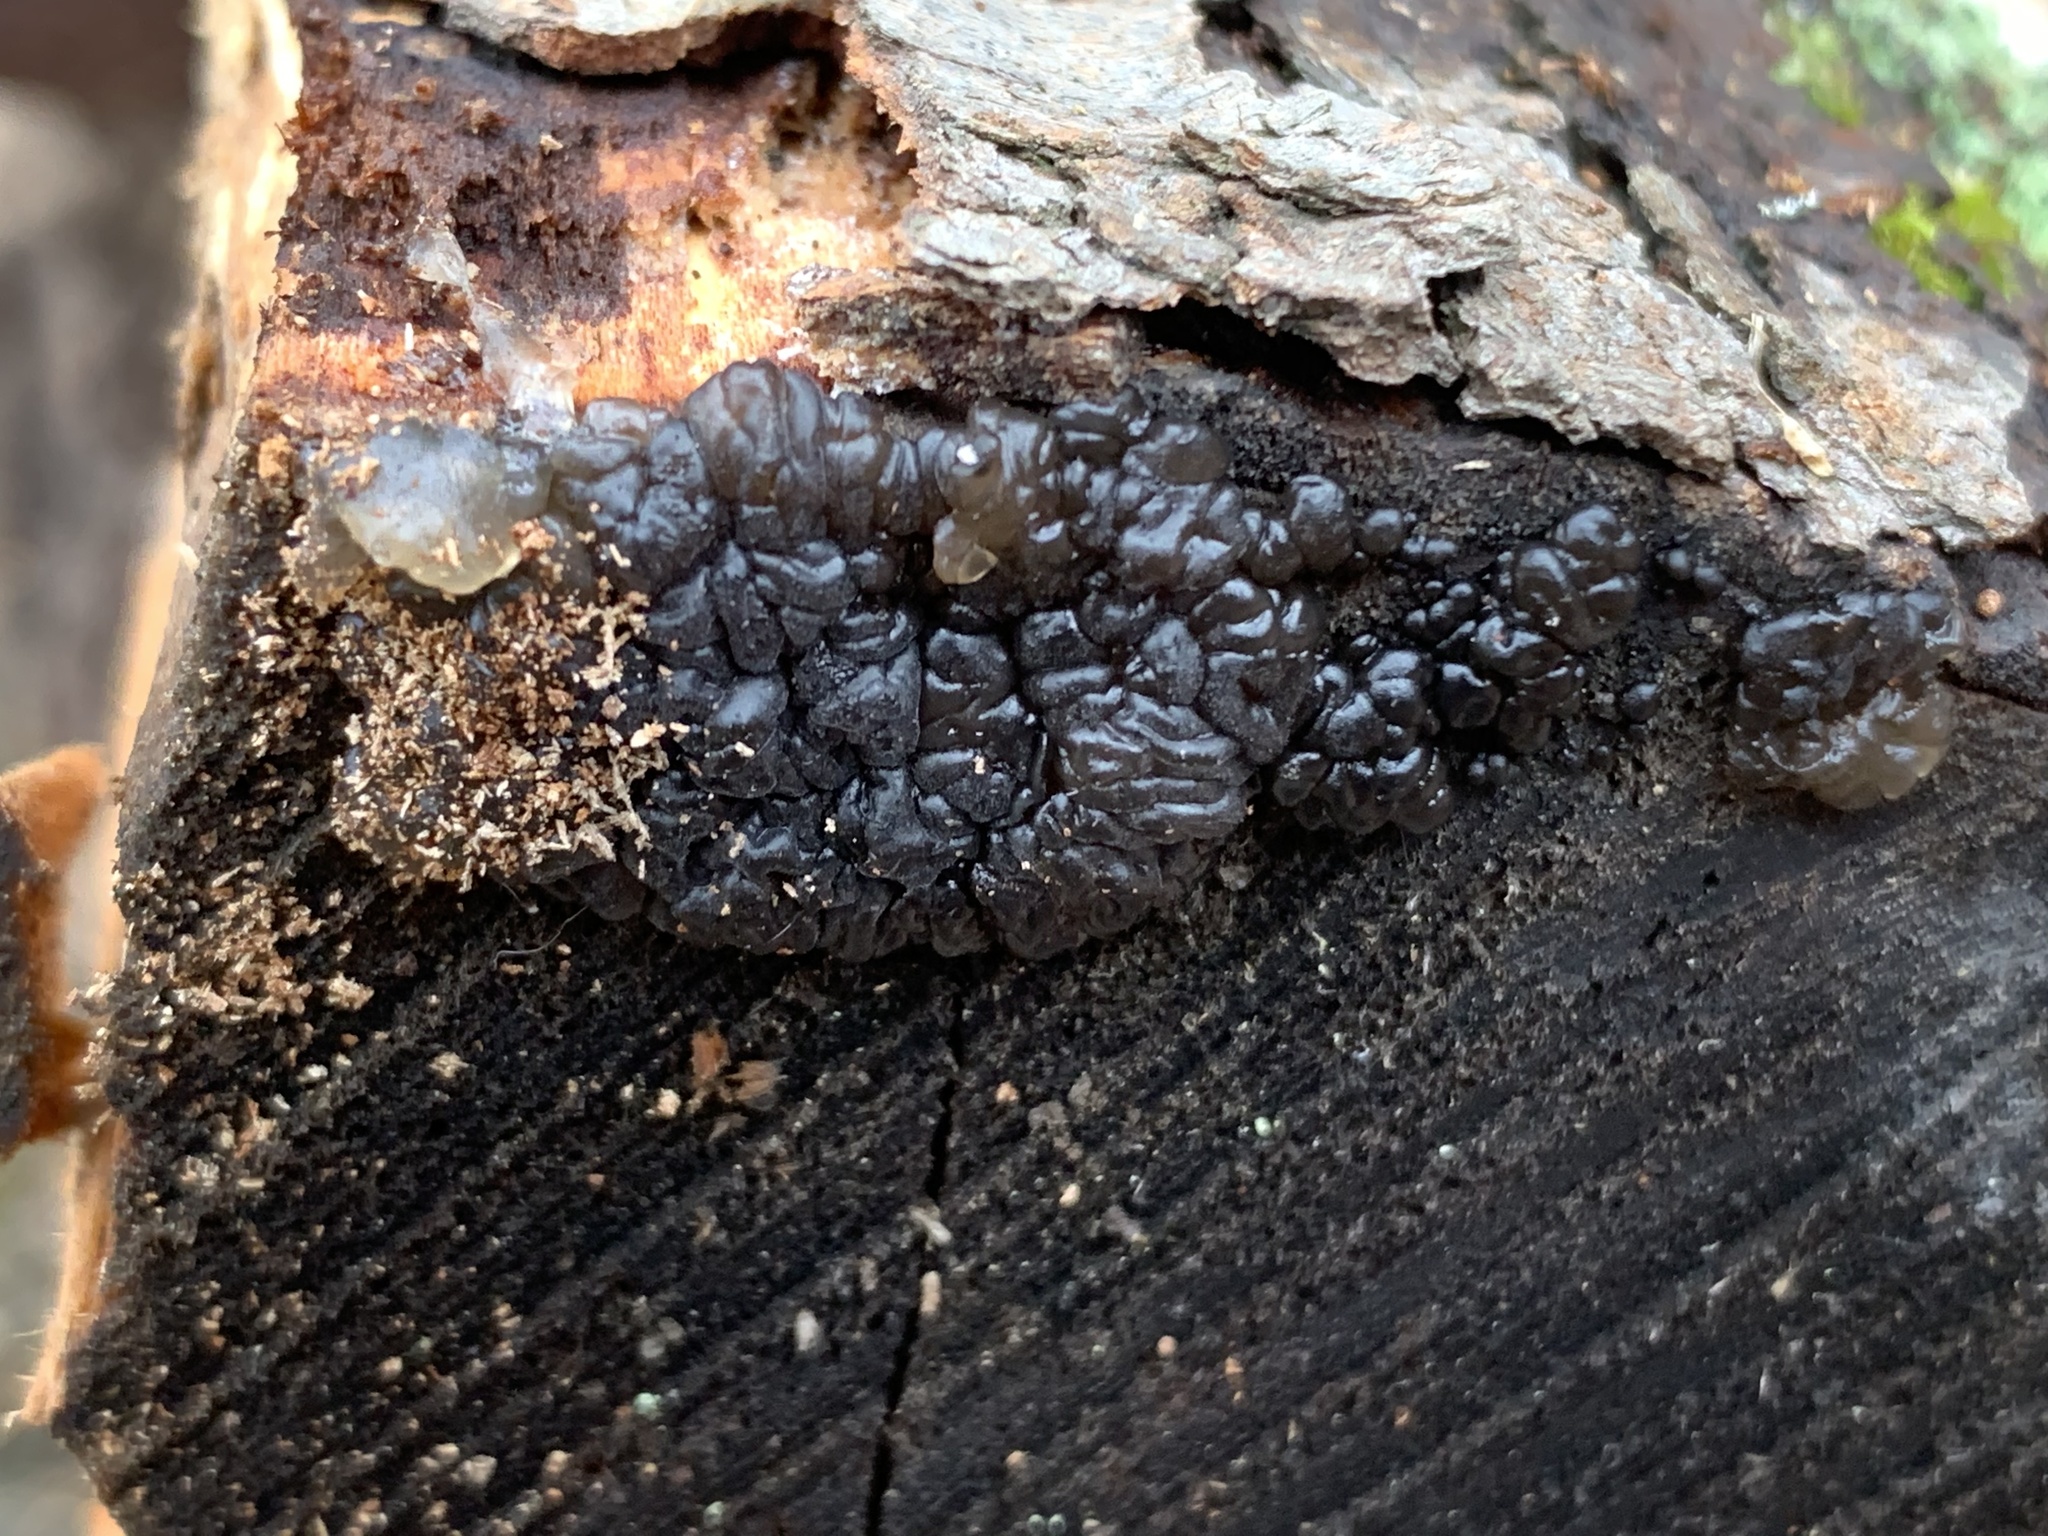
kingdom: Fungi
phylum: Basidiomycota
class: Agaricomycetes
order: Auriculariales
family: Auriculariaceae
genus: Exidia
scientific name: Exidia glandulosa
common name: Witches' butter
